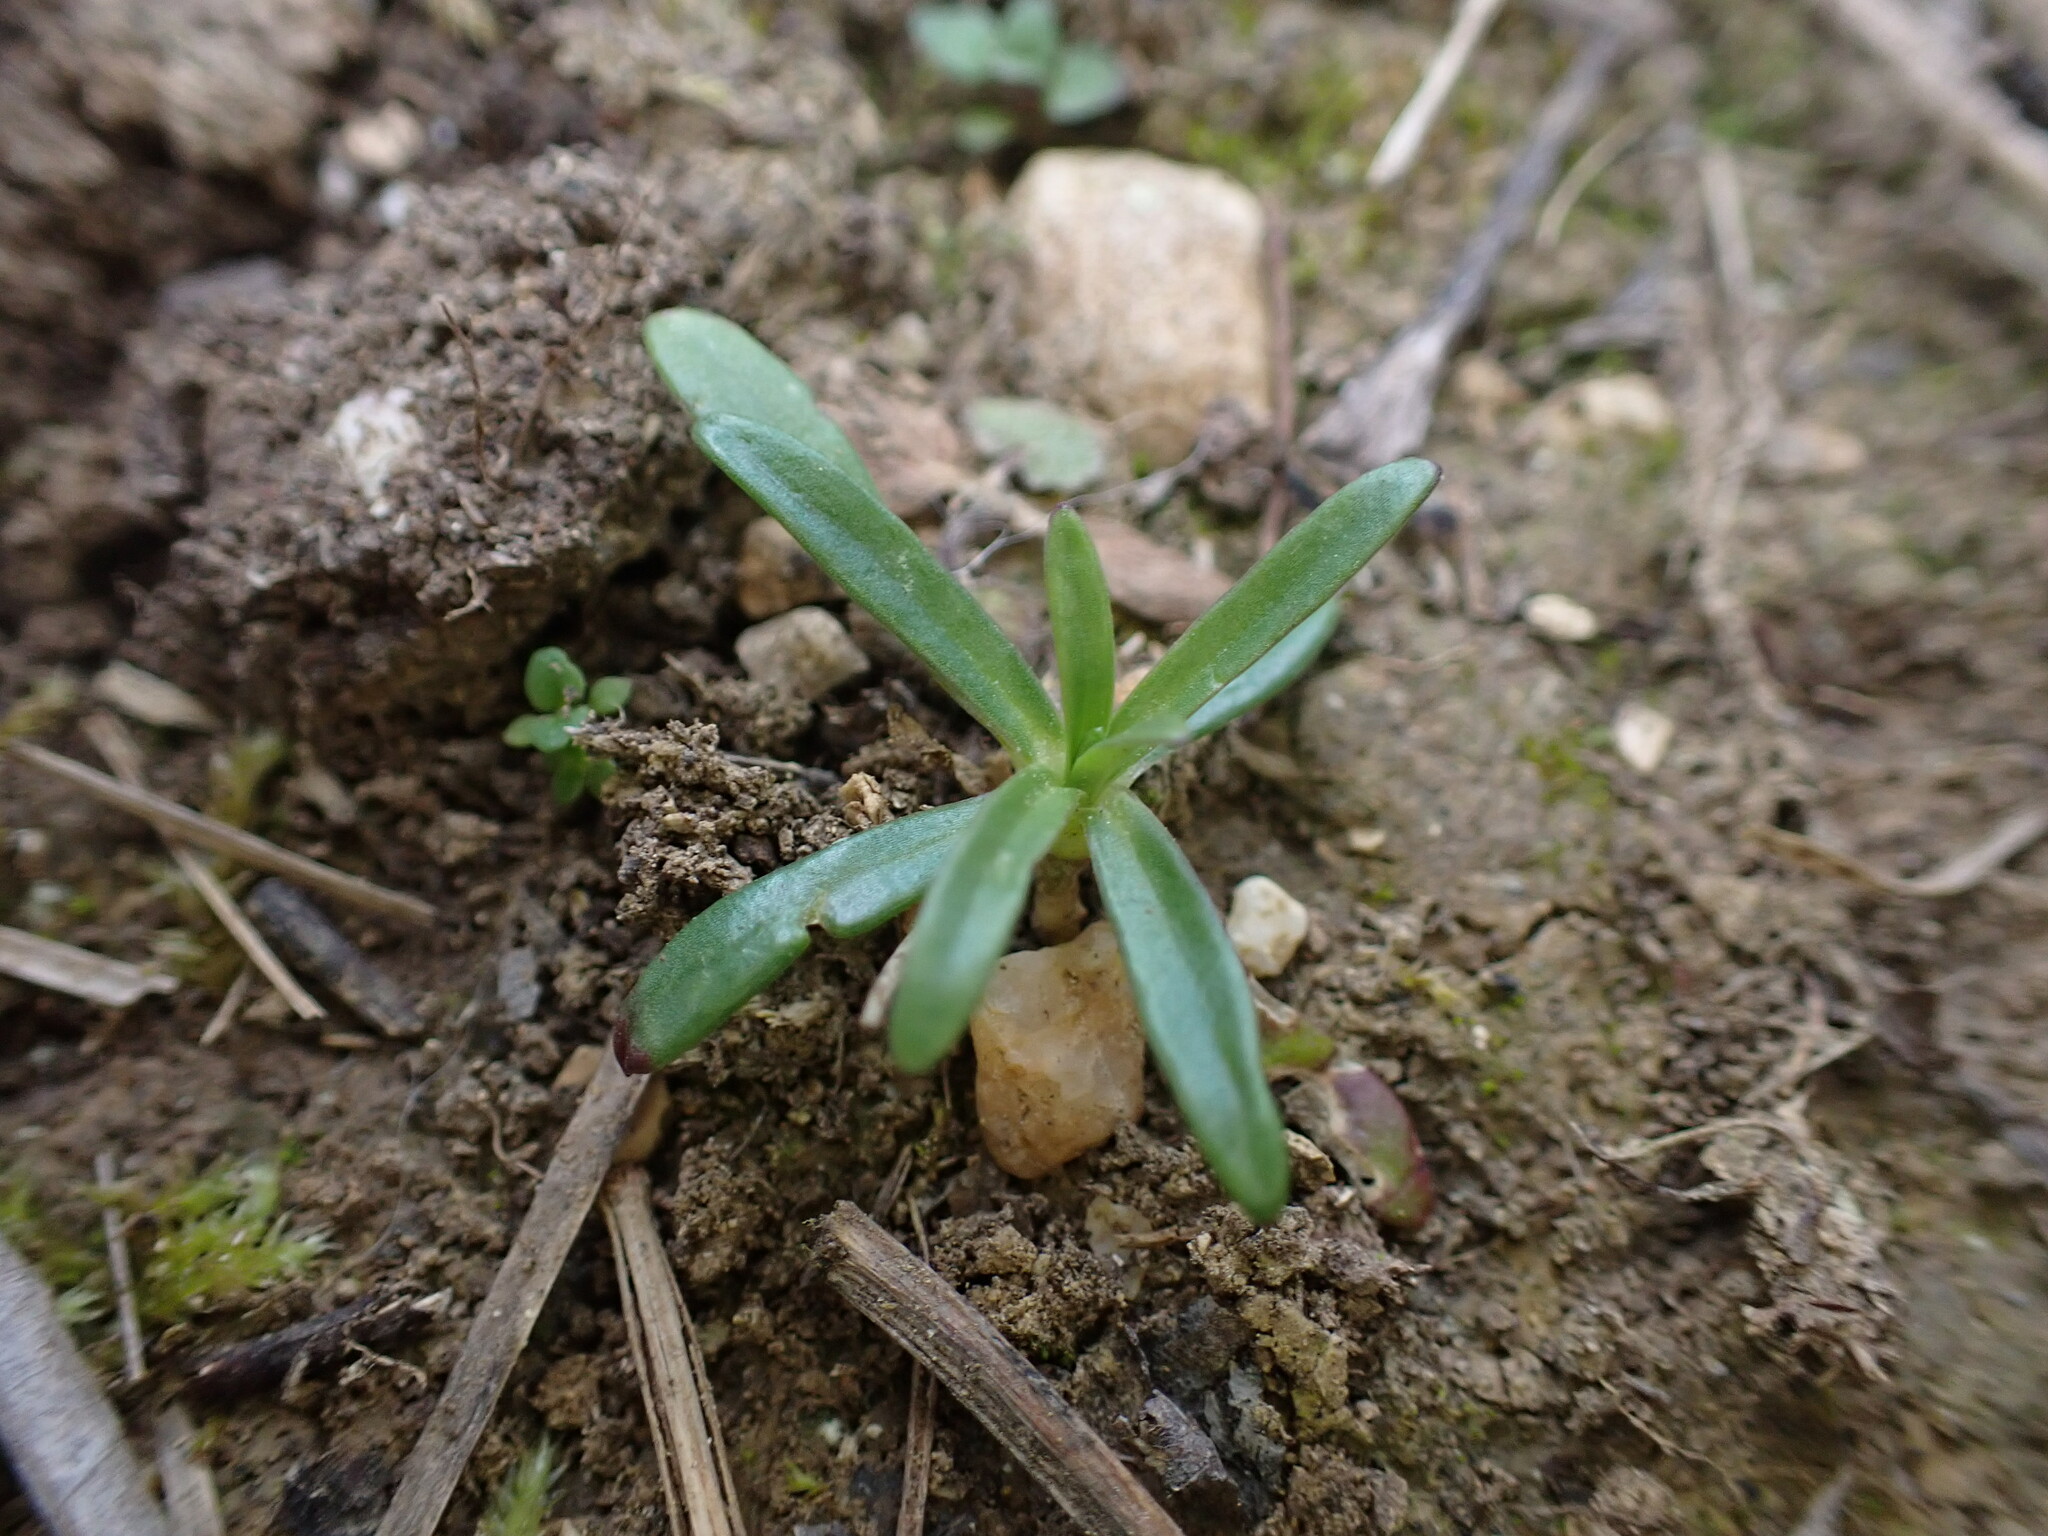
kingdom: Plantae
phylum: Tracheophyta
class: Magnoliopsida
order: Caryophyllales
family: Caryophyllaceae
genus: Petrorhagia
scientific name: Petrorhagia prolifera
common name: Proliferous pink
